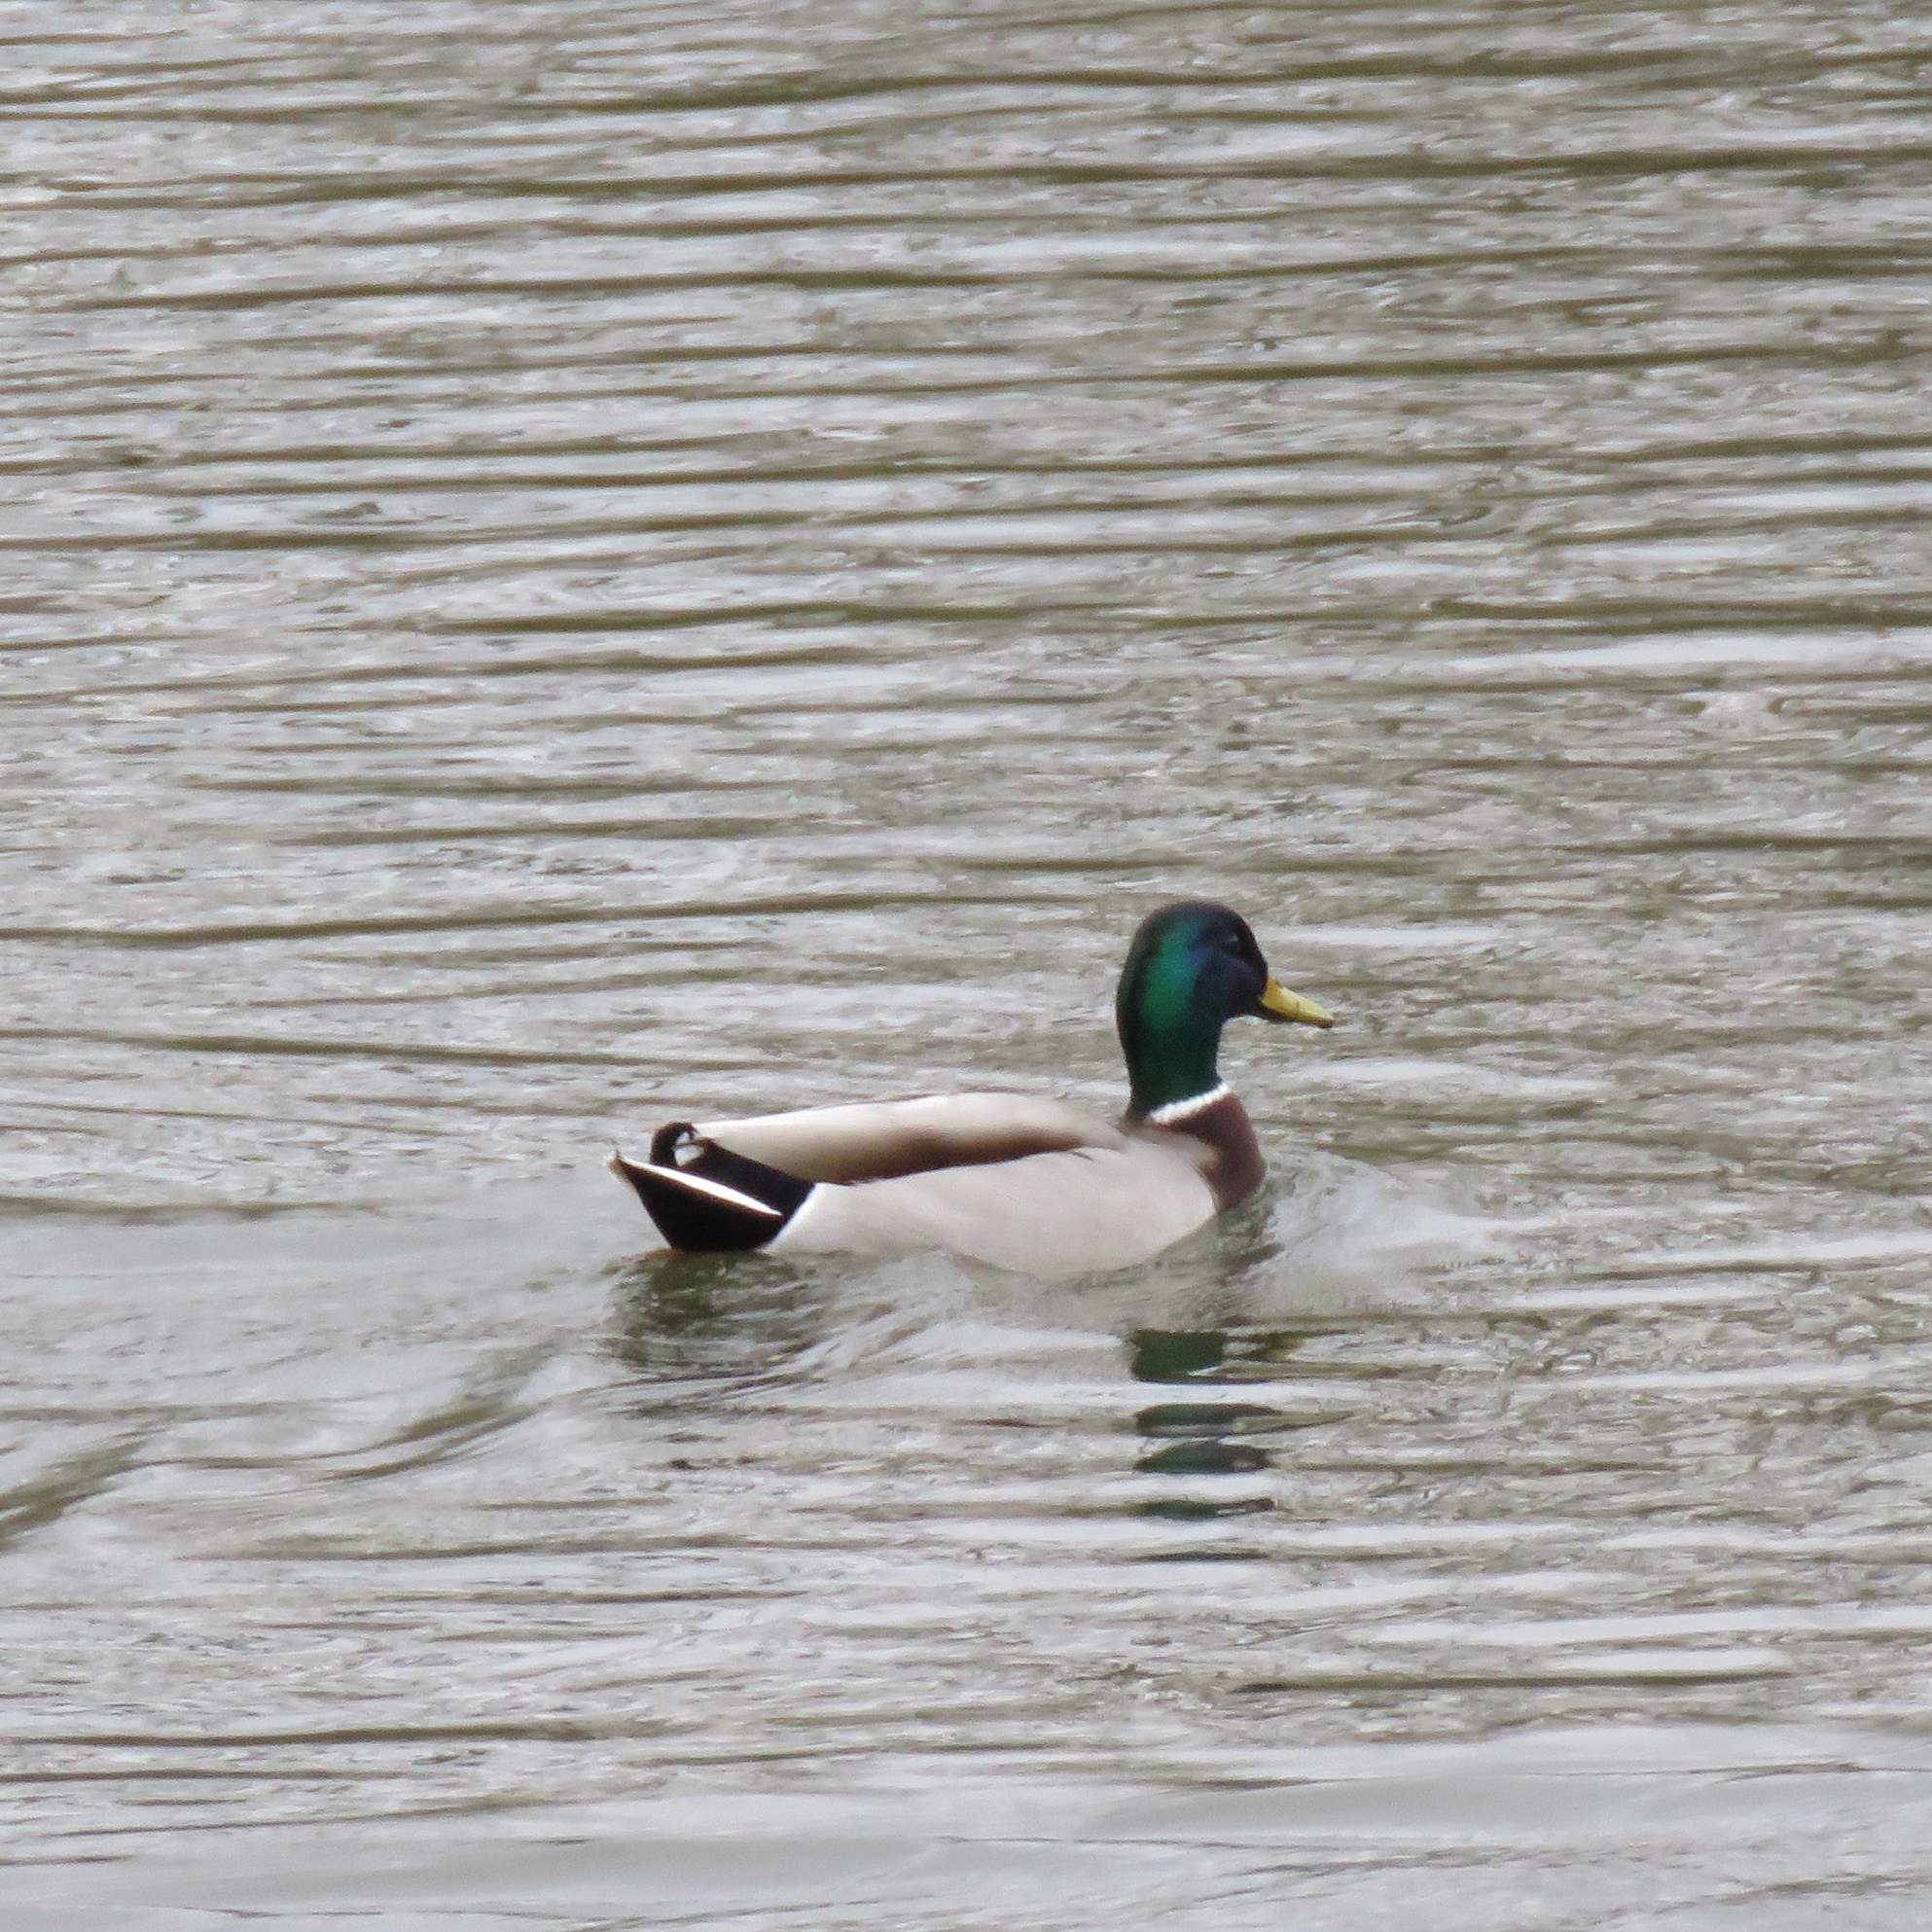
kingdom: Animalia
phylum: Chordata
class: Aves
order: Anseriformes
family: Anatidae
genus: Anas
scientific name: Anas platyrhynchos
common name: Mallard
